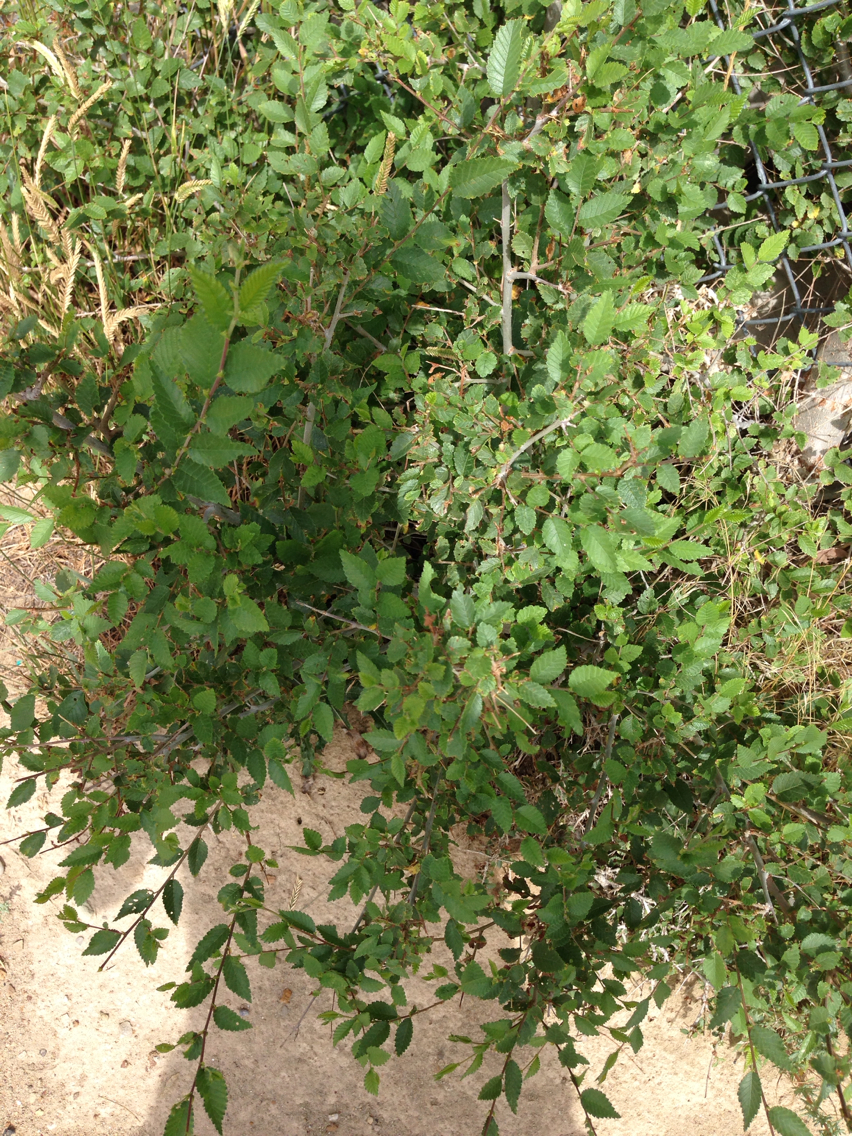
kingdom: Plantae
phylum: Tracheophyta
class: Magnoliopsida
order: Rosales
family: Ulmaceae
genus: Ulmus
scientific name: Ulmus pumila
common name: Siberian elm
